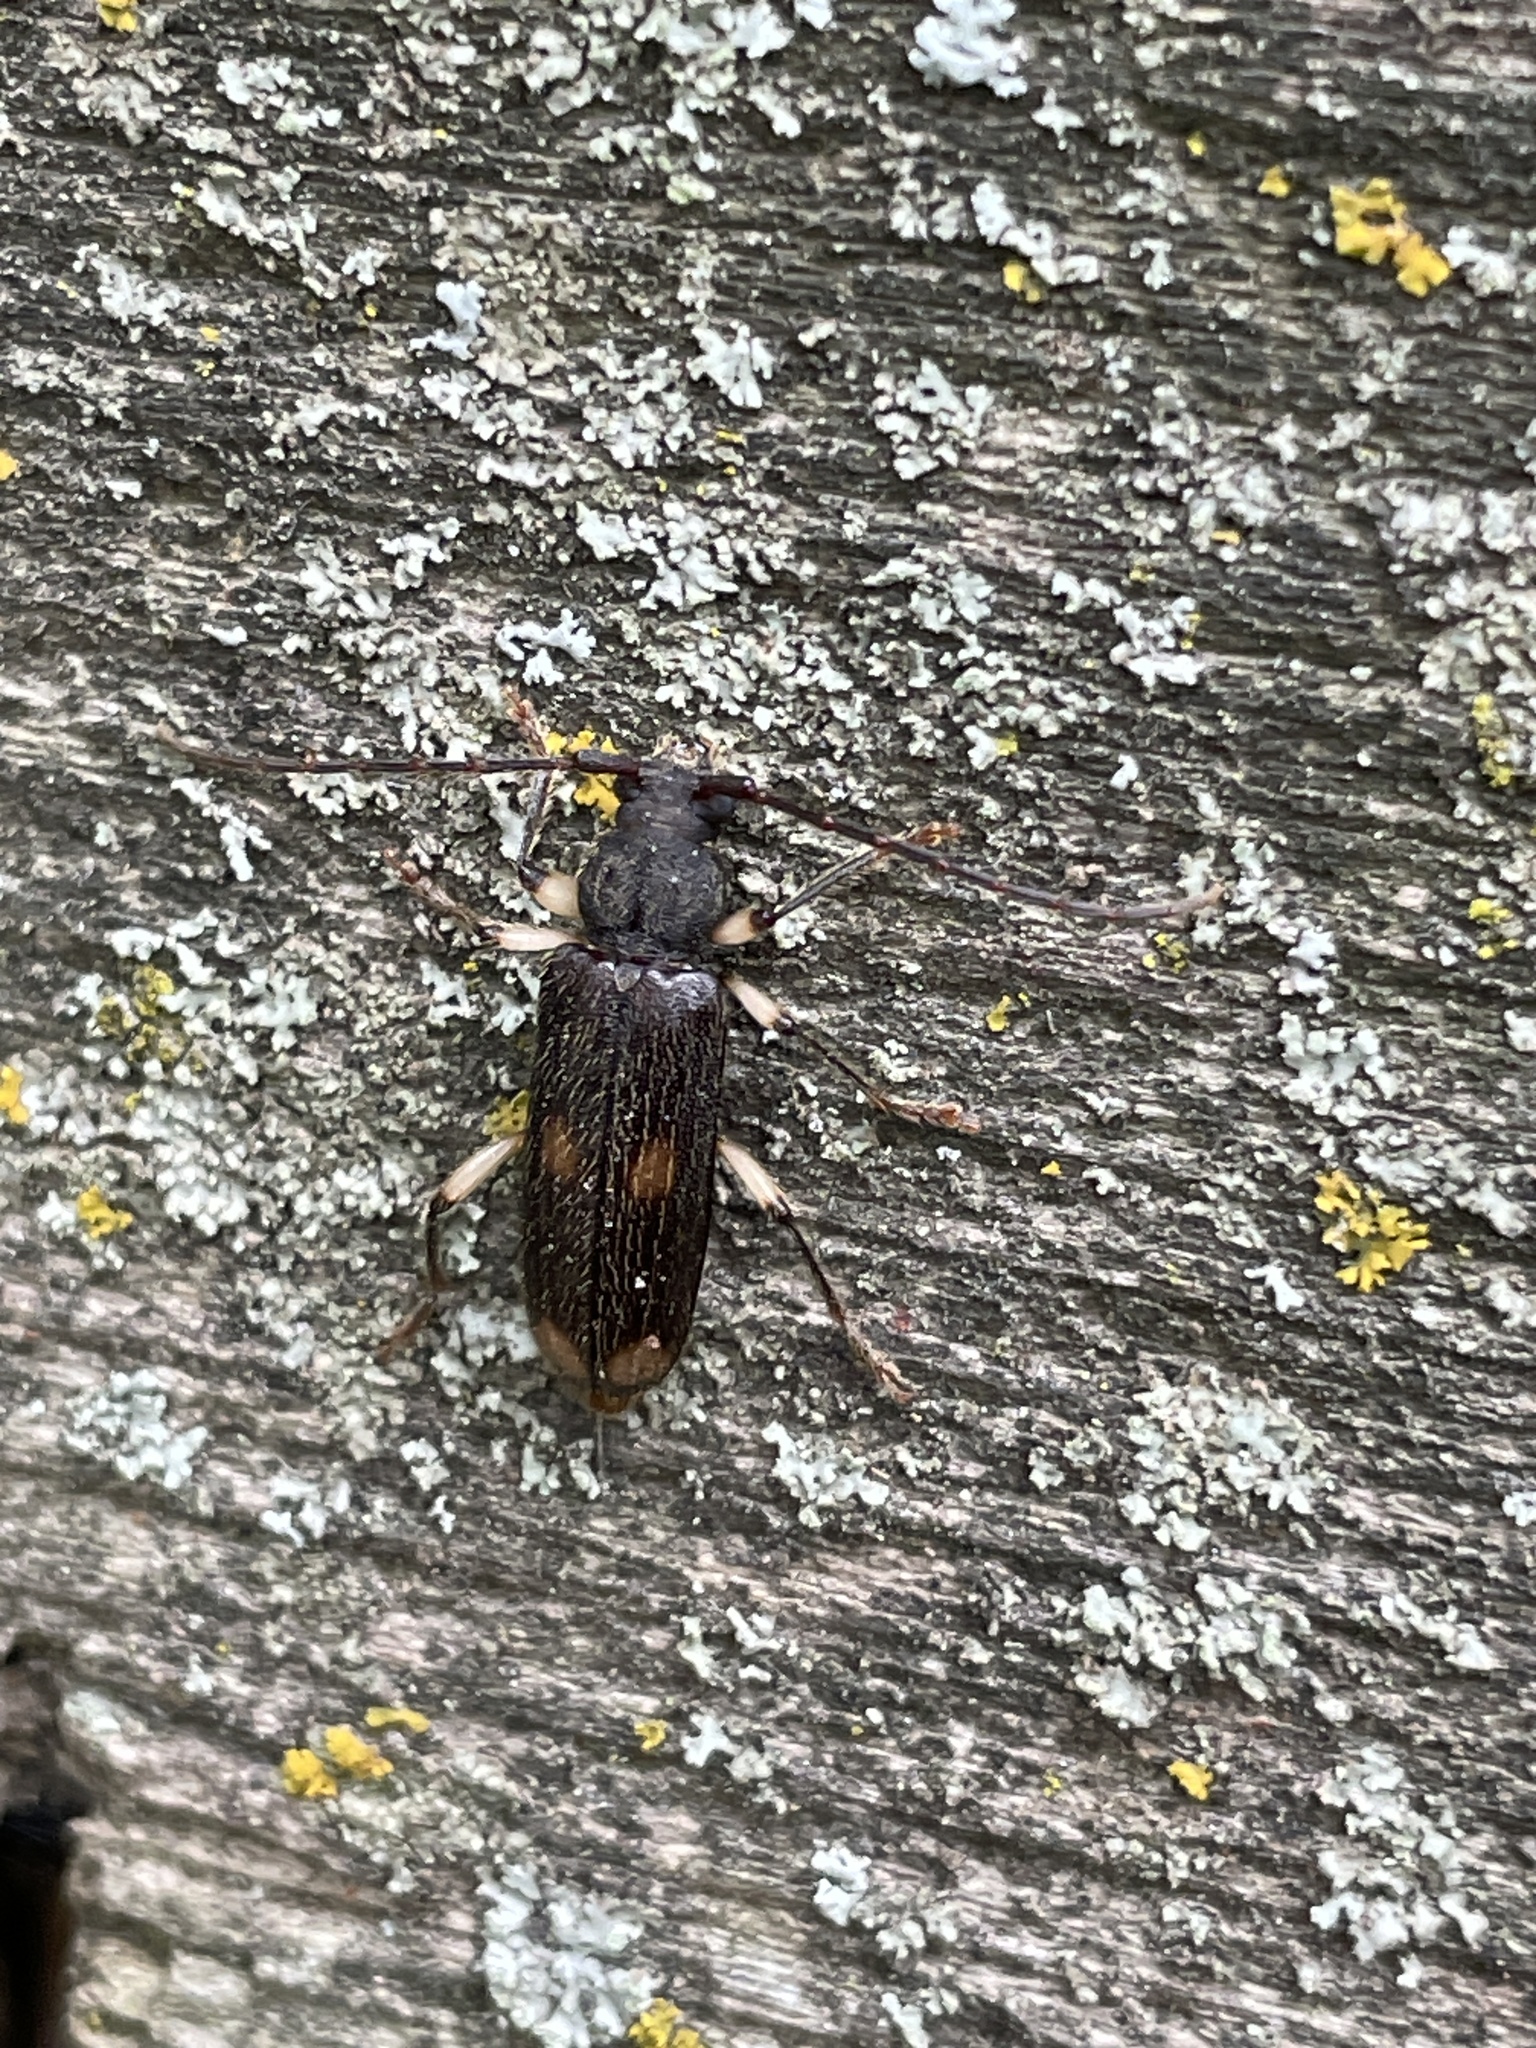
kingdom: Animalia
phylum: Arthropoda
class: Insecta
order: Coleoptera
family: Cerambycidae
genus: Tylonotus
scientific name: Tylonotus bimaculatus
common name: Ash and privet borer
